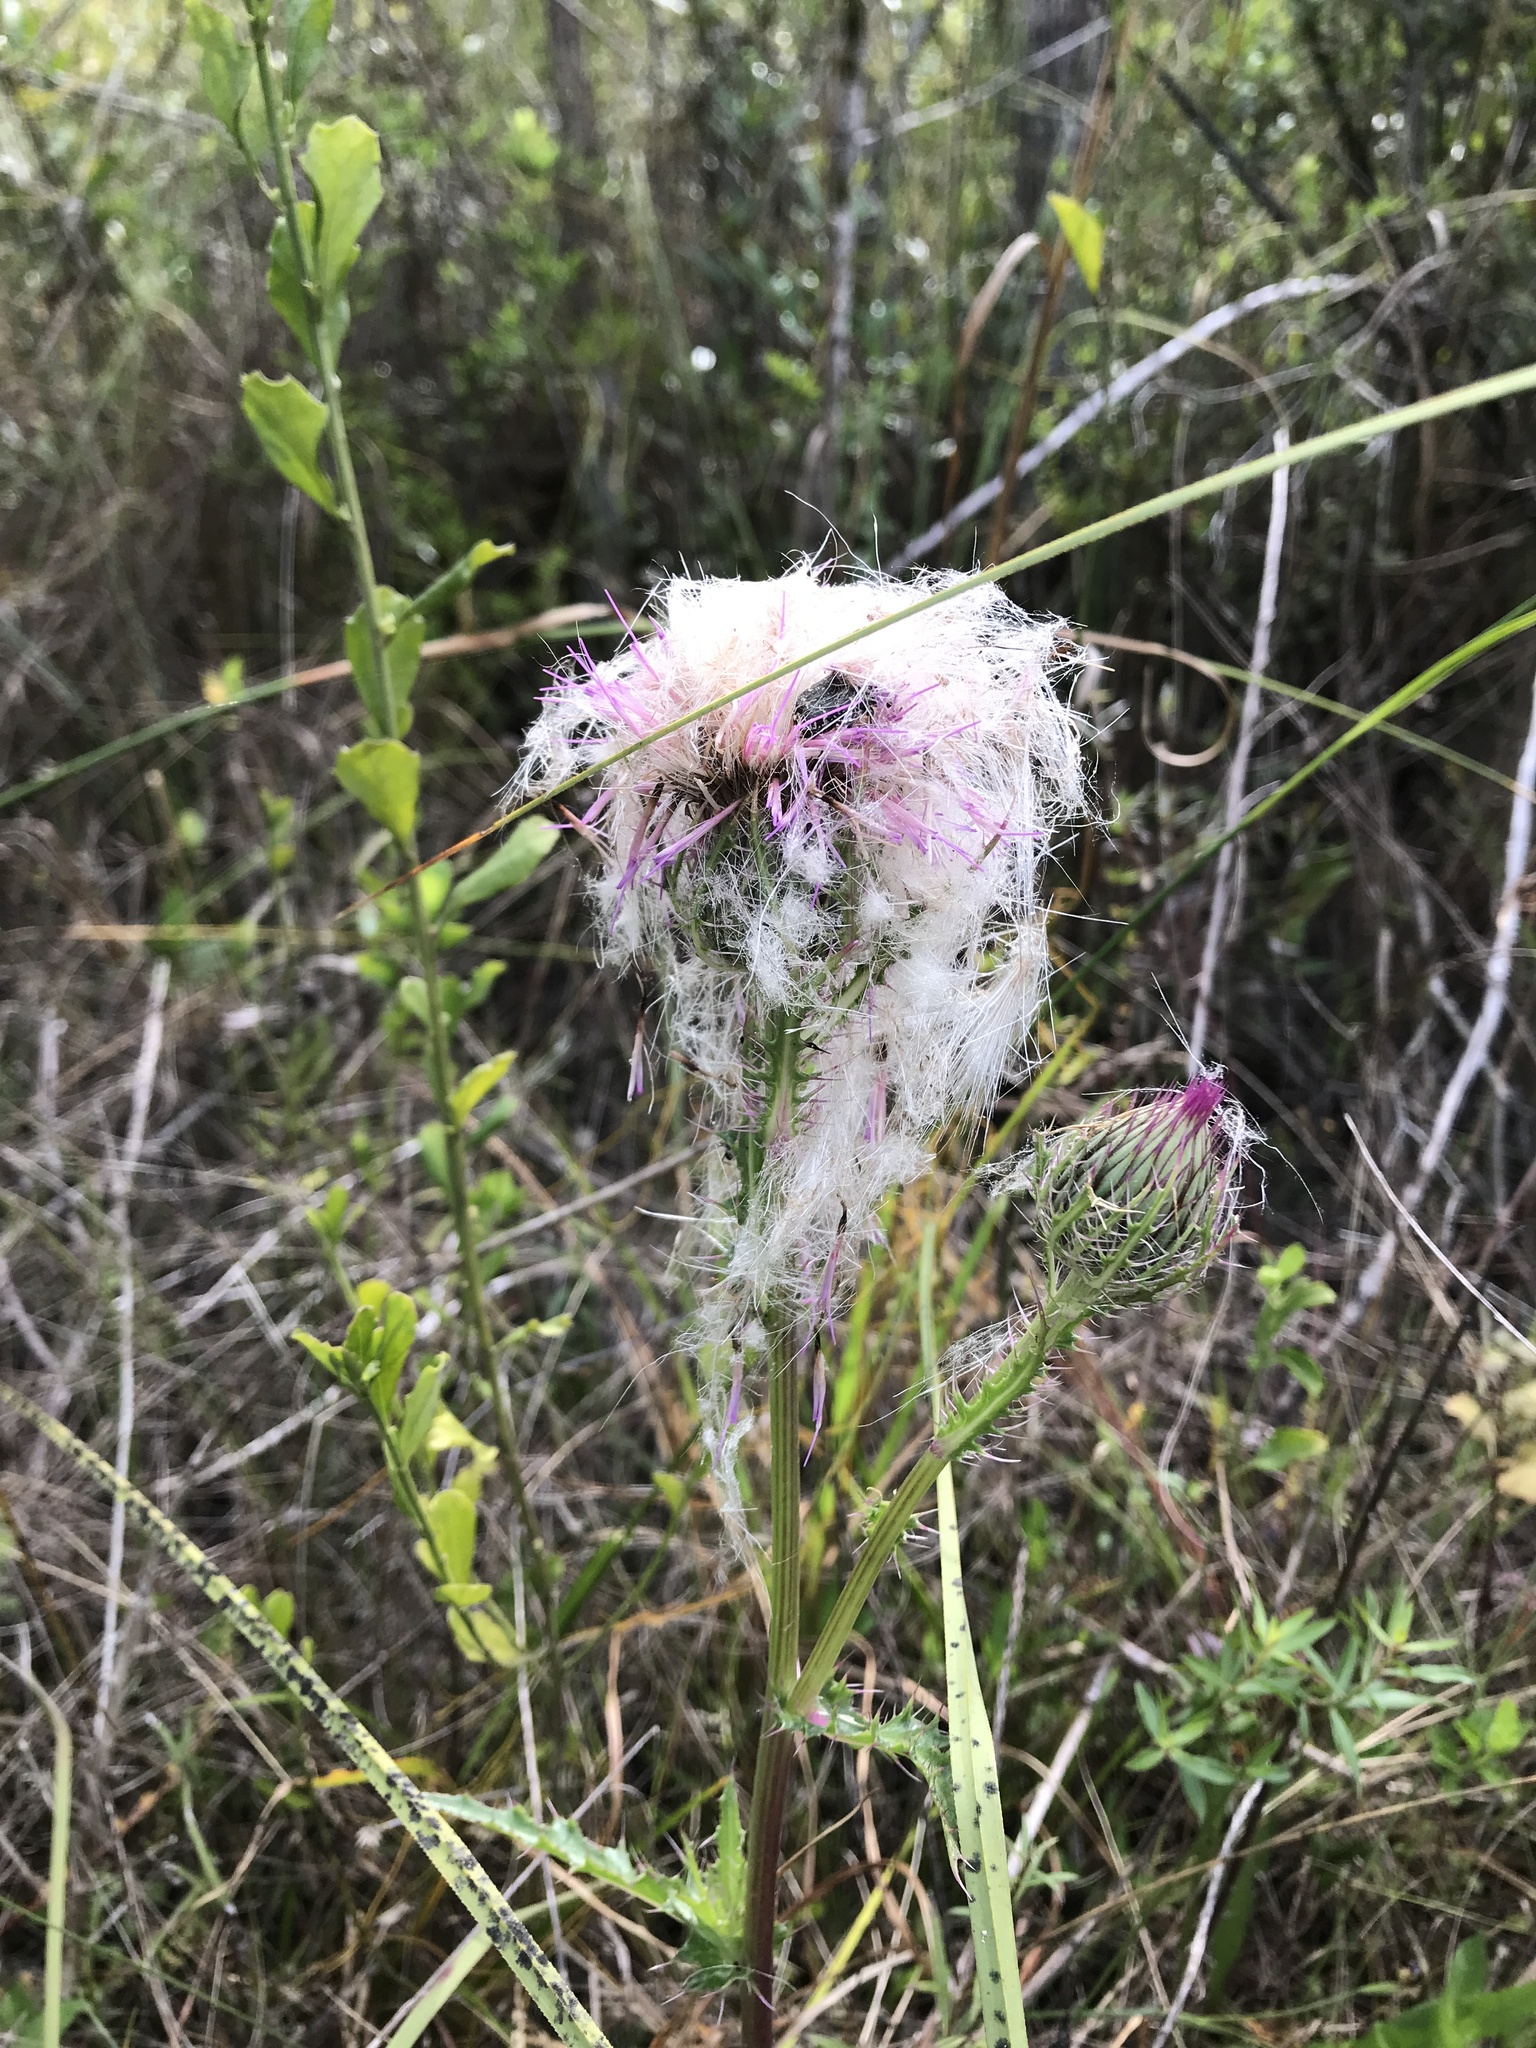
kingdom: Plantae
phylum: Tracheophyta
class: Magnoliopsida
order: Asterales
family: Asteraceae
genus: Cirsium
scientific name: Cirsium horridulum
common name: Bristly thistle
